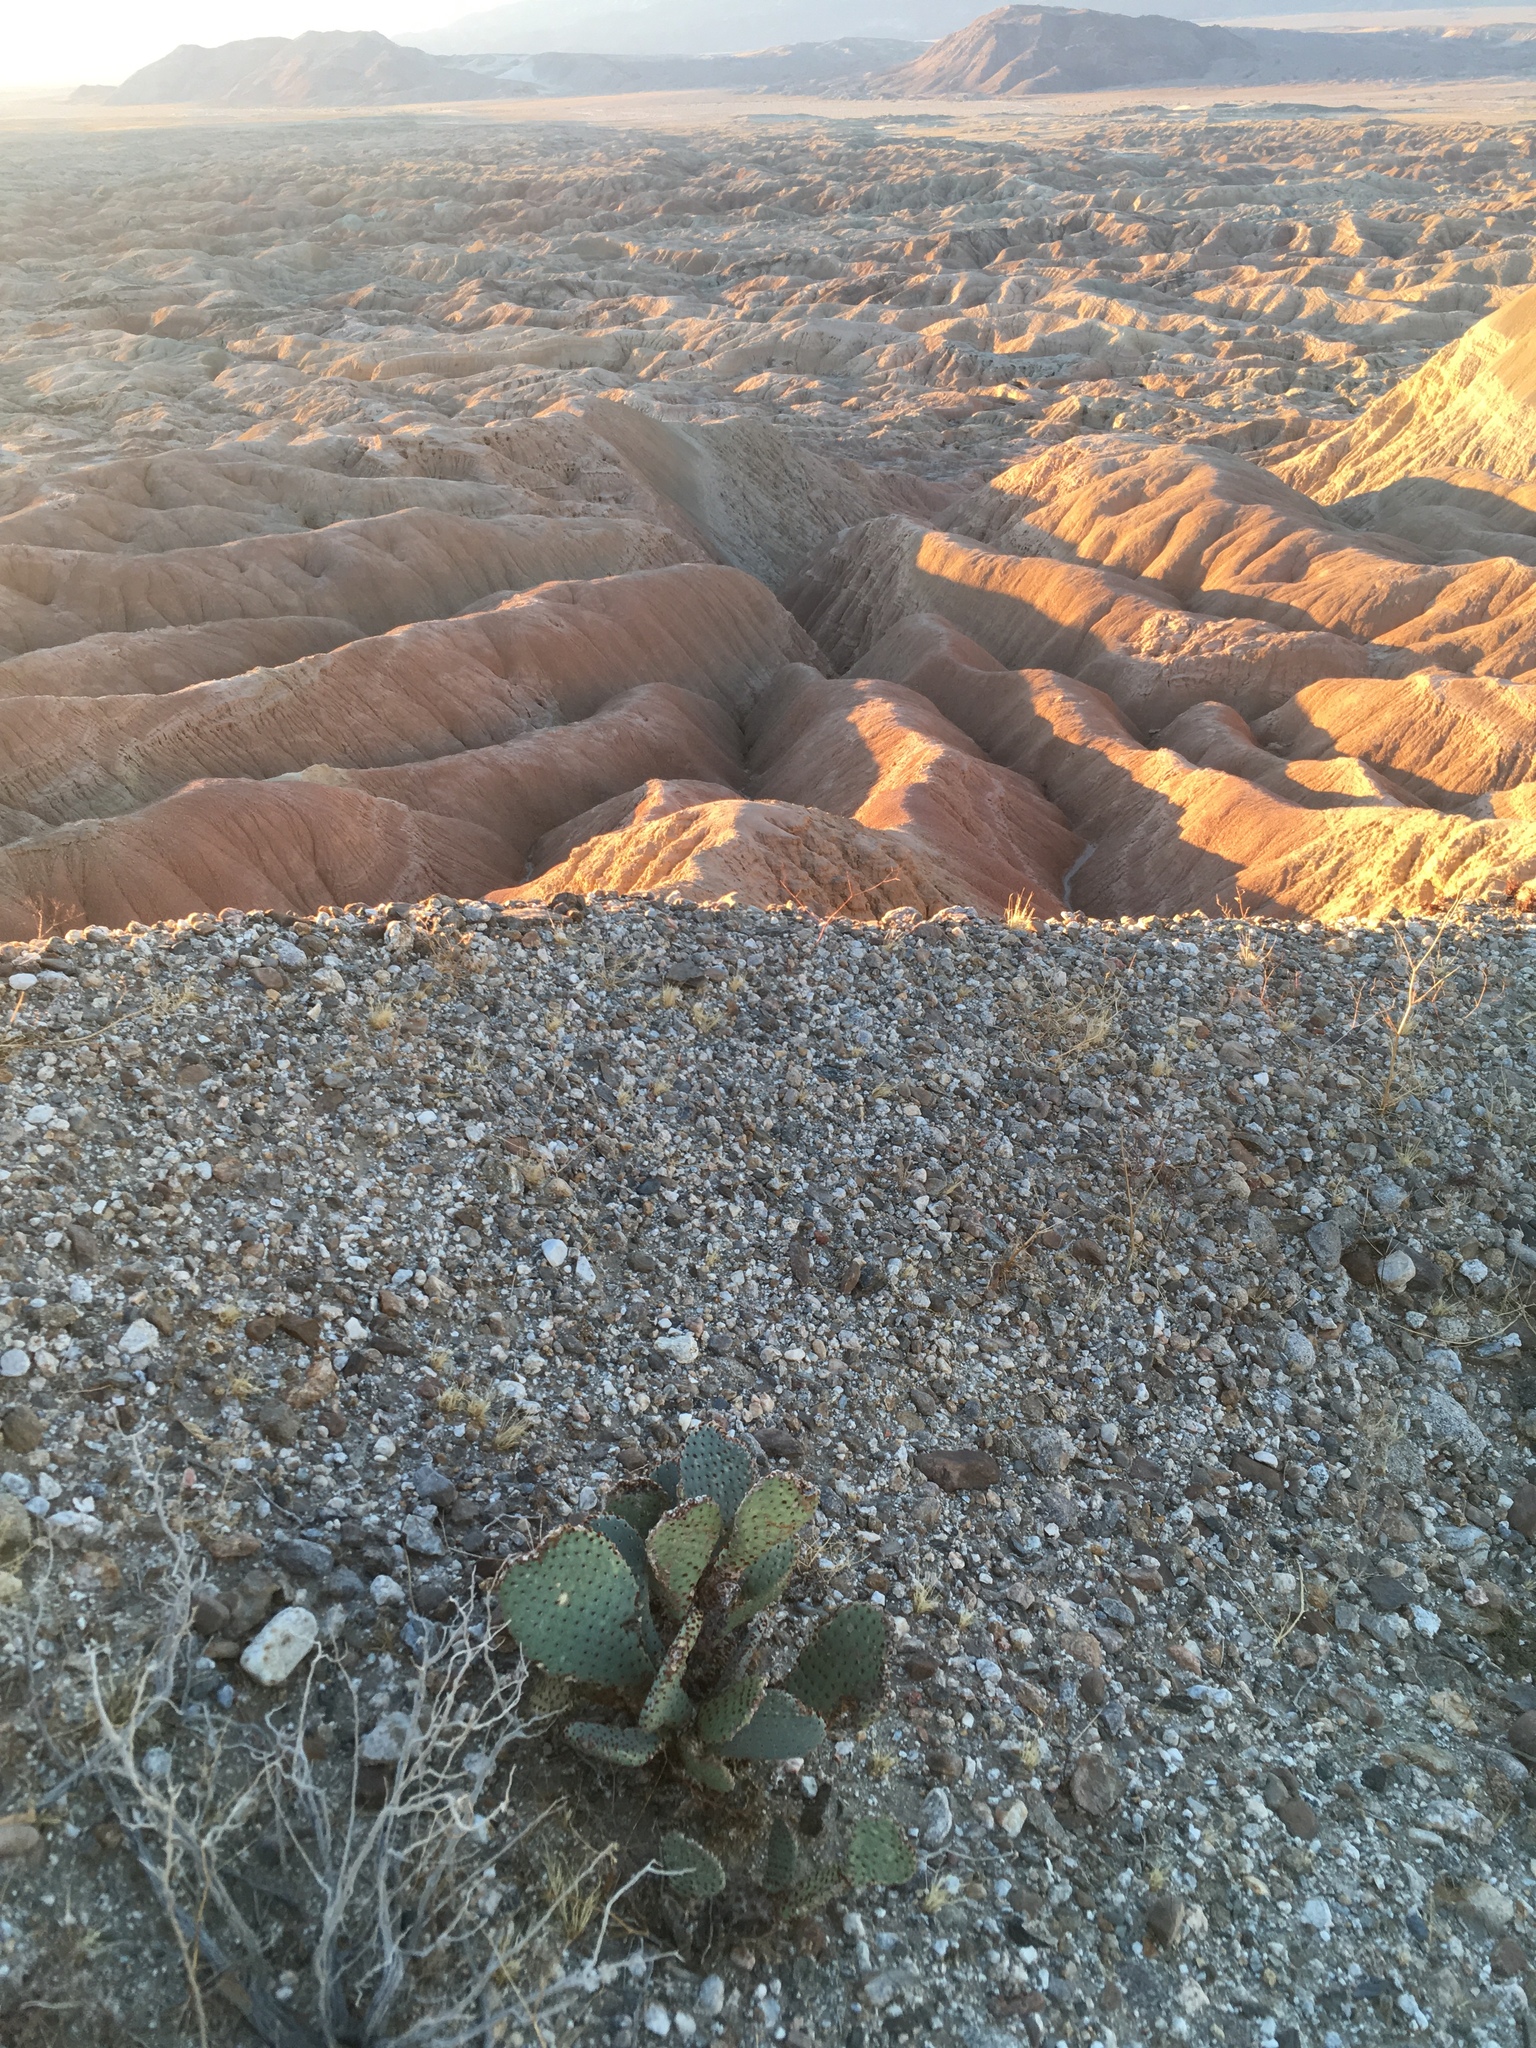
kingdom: Plantae
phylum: Tracheophyta
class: Magnoliopsida
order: Caryophyllales
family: Cactaceae
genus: Opuntia
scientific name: Opuntia basilaris
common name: Beavertail prickly-pear
